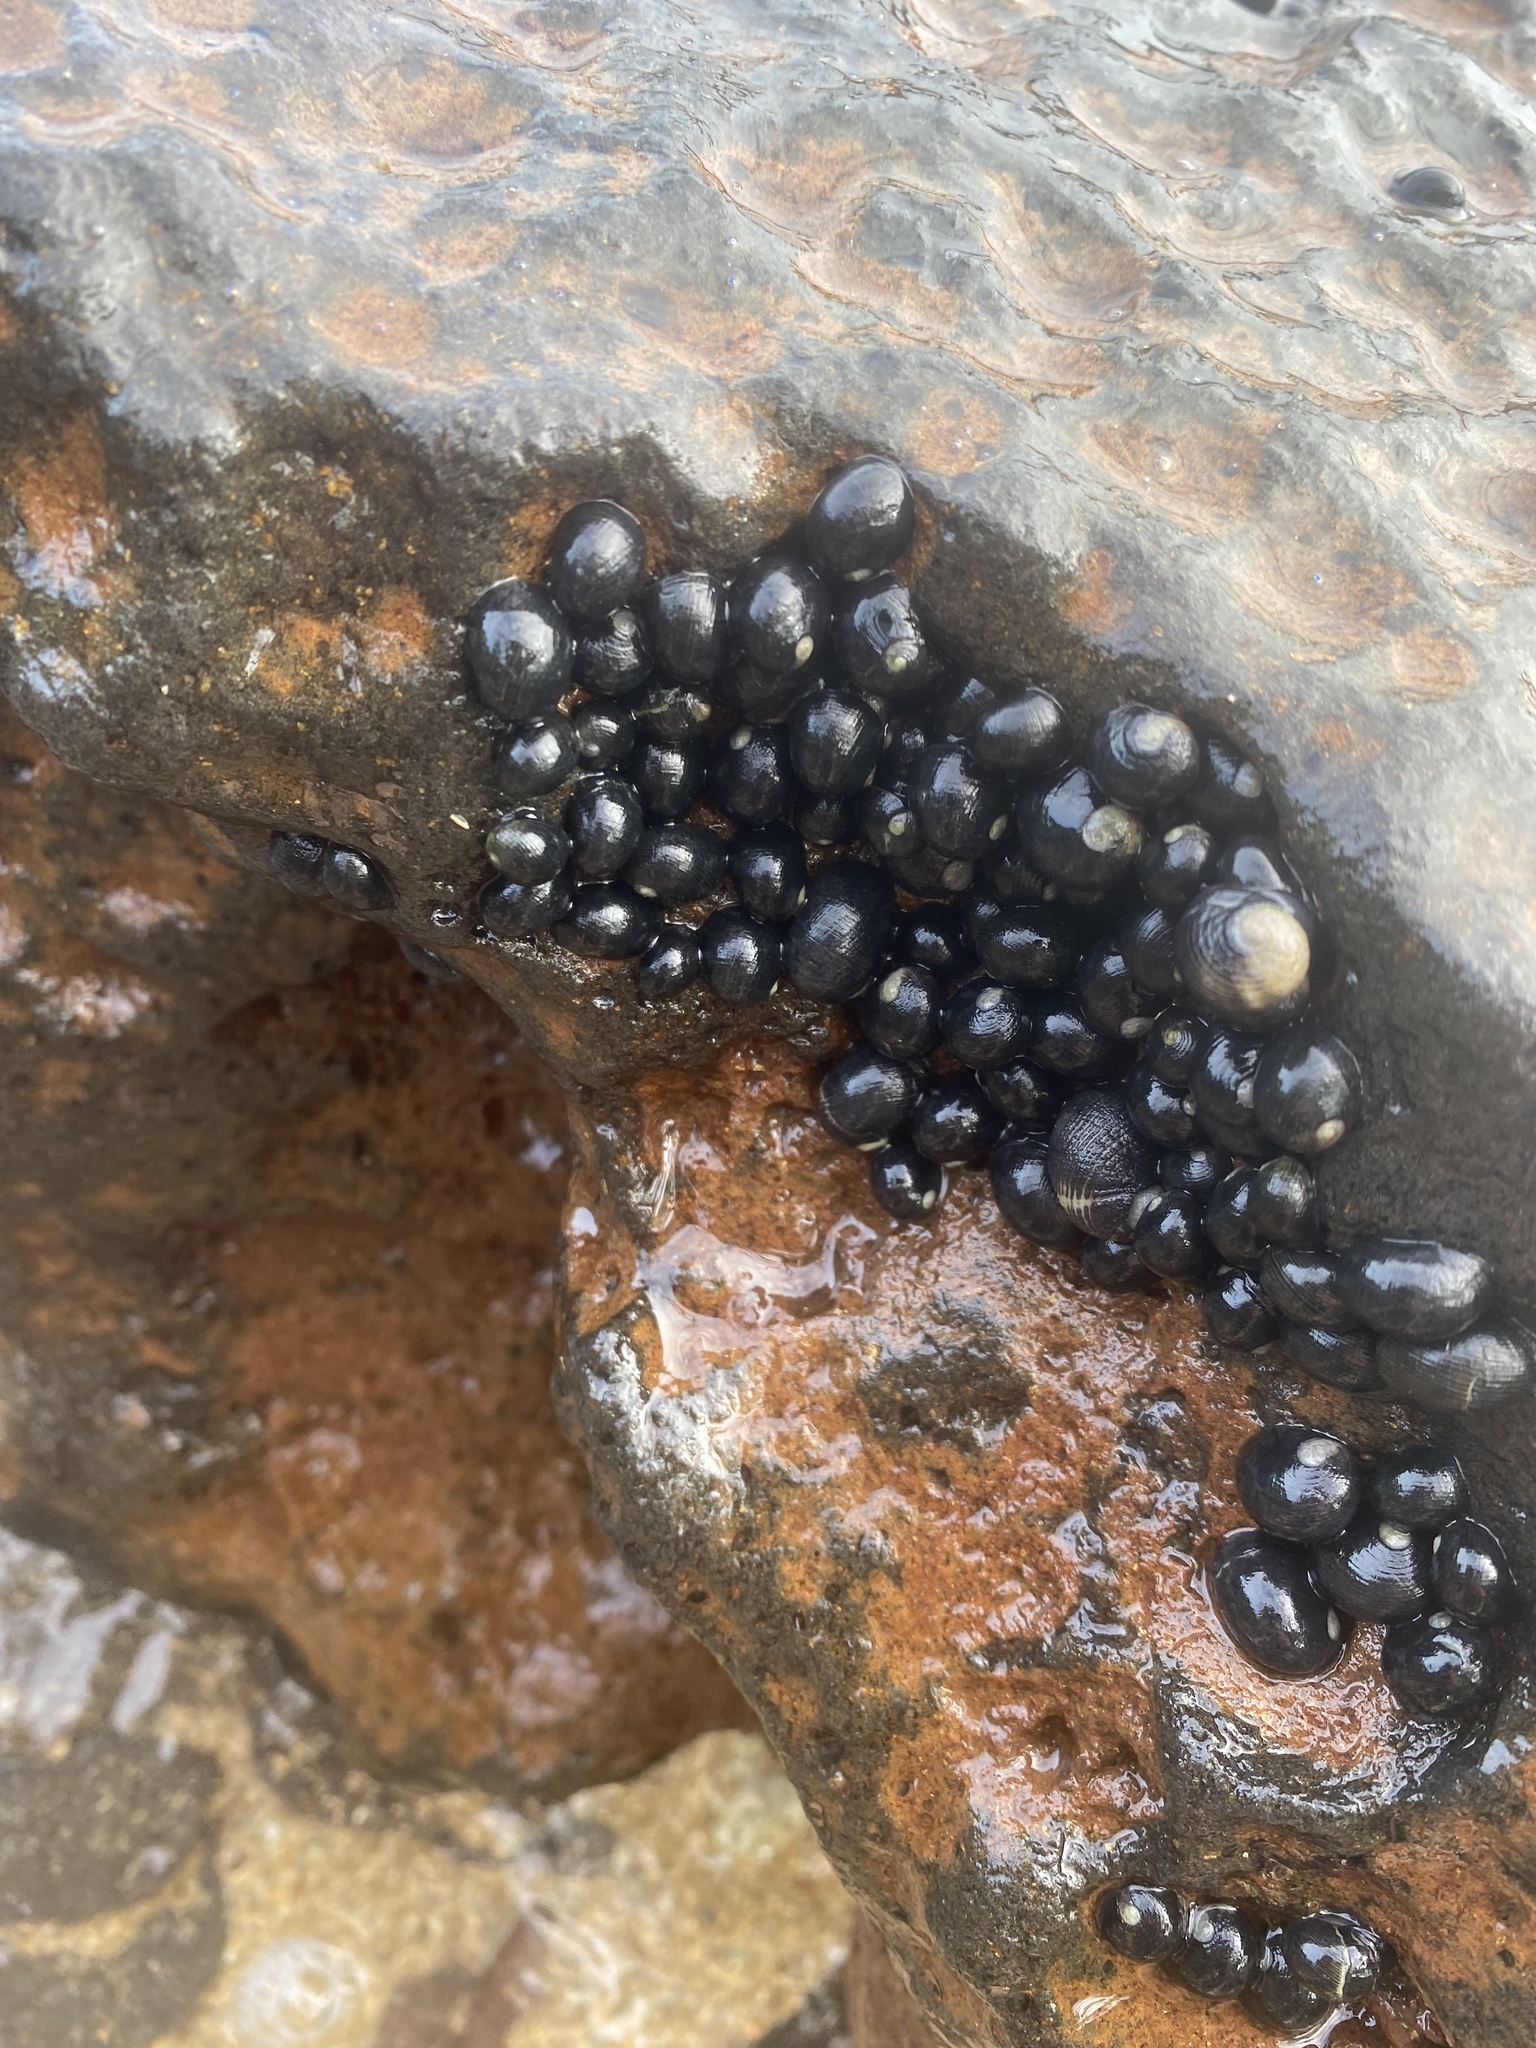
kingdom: Animalia
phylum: Mollusca
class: Gastropoda
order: Cycloneritida
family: Neritidae
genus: Nerita
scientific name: Nerita picea
